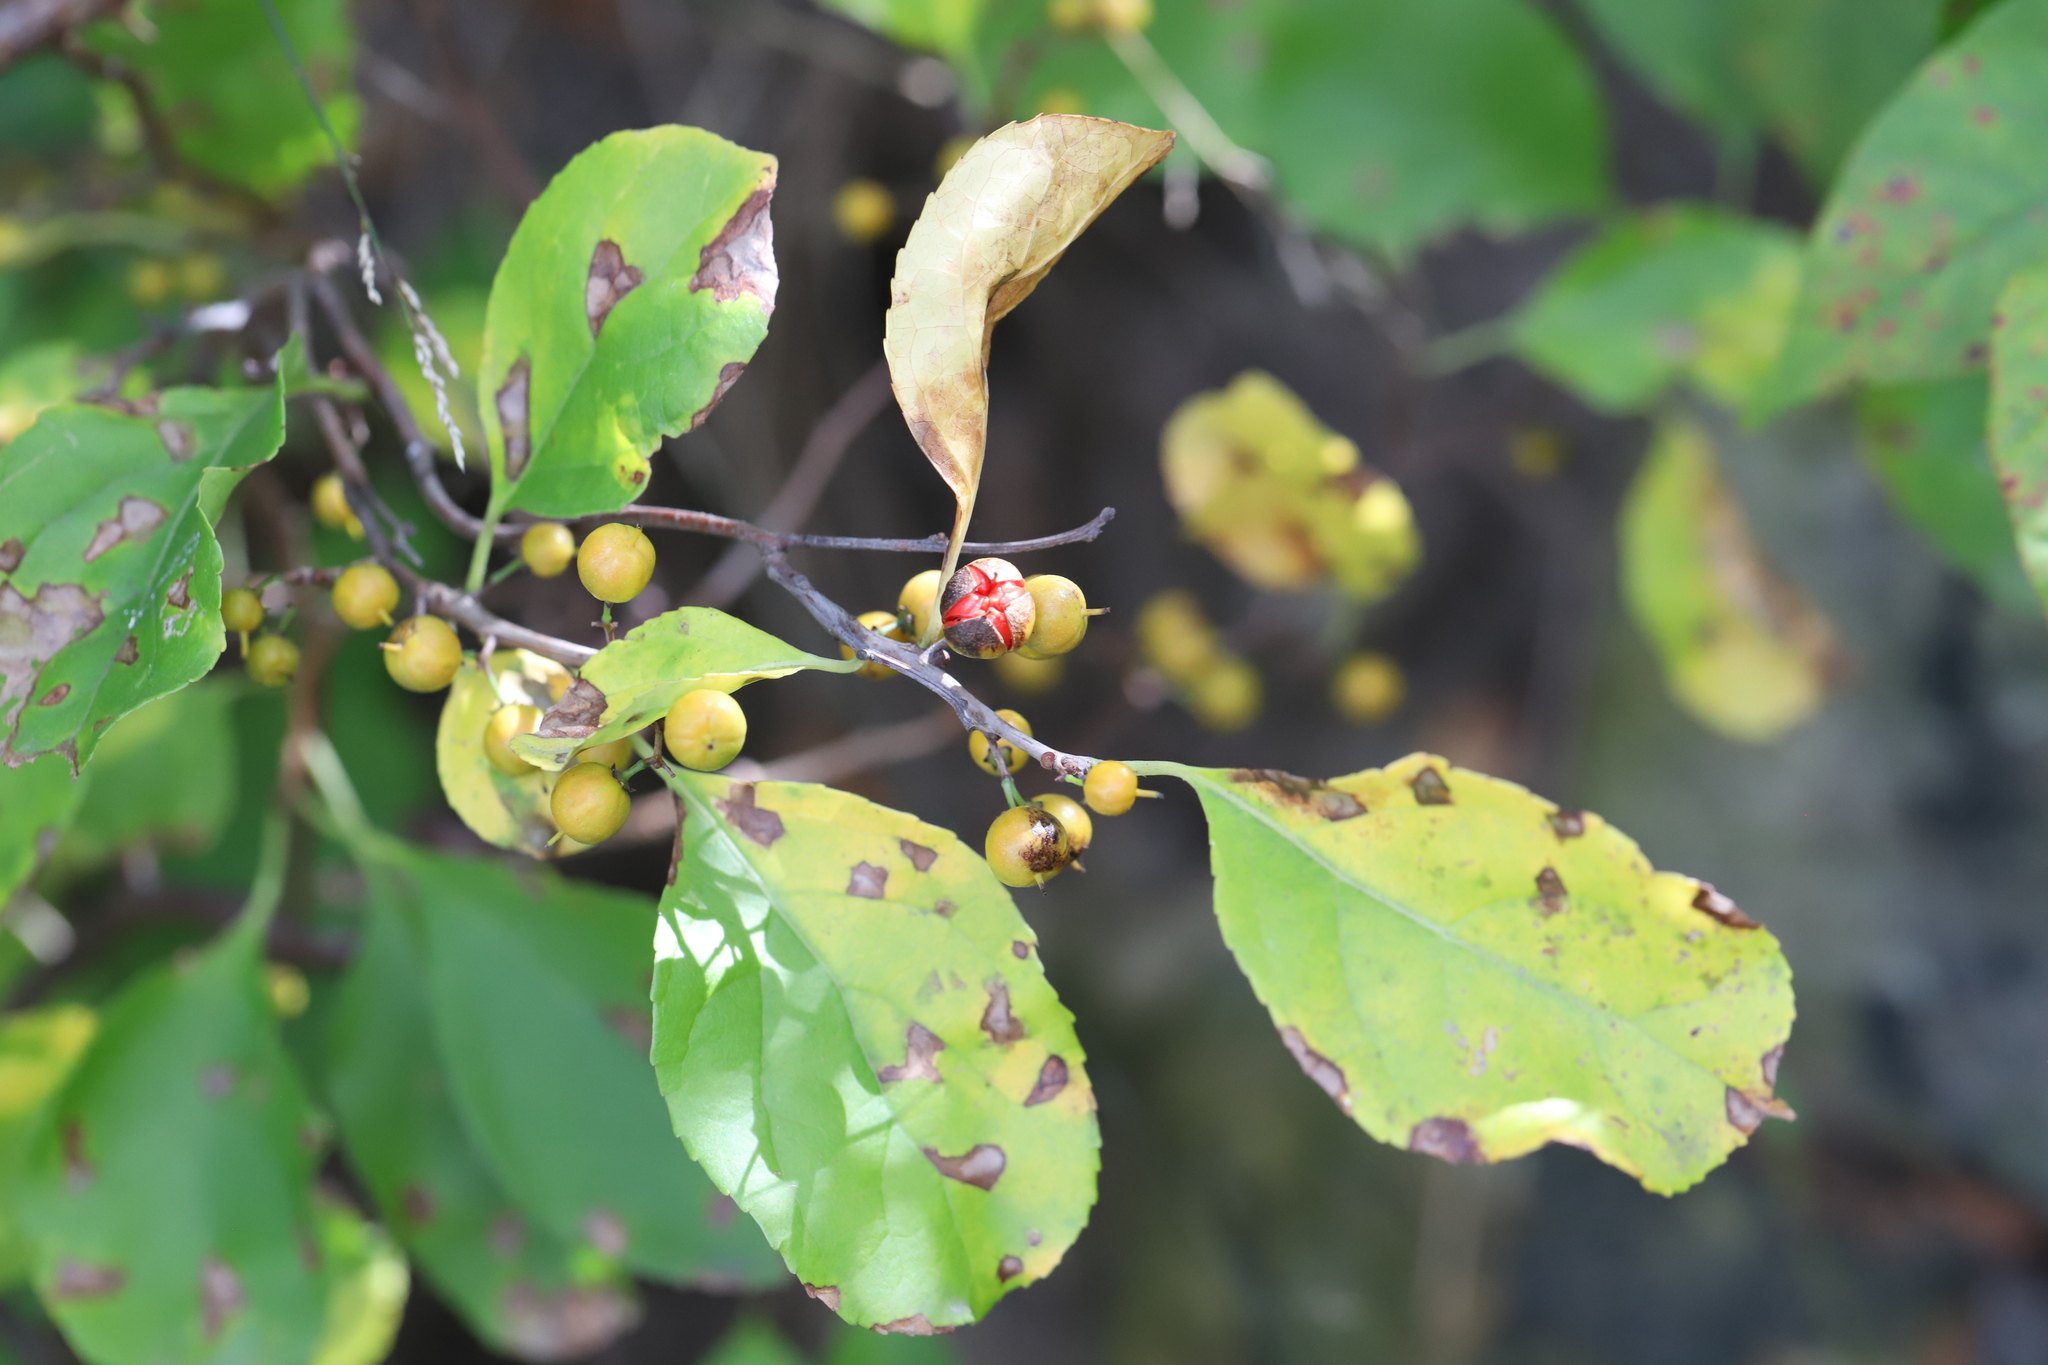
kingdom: Plantae
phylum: Tracheophyta
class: Magnoliopsida
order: Celastrales
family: Celastraceae
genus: Celastrus
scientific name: Celastrus orbiculatus
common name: Oriental bittersweet
